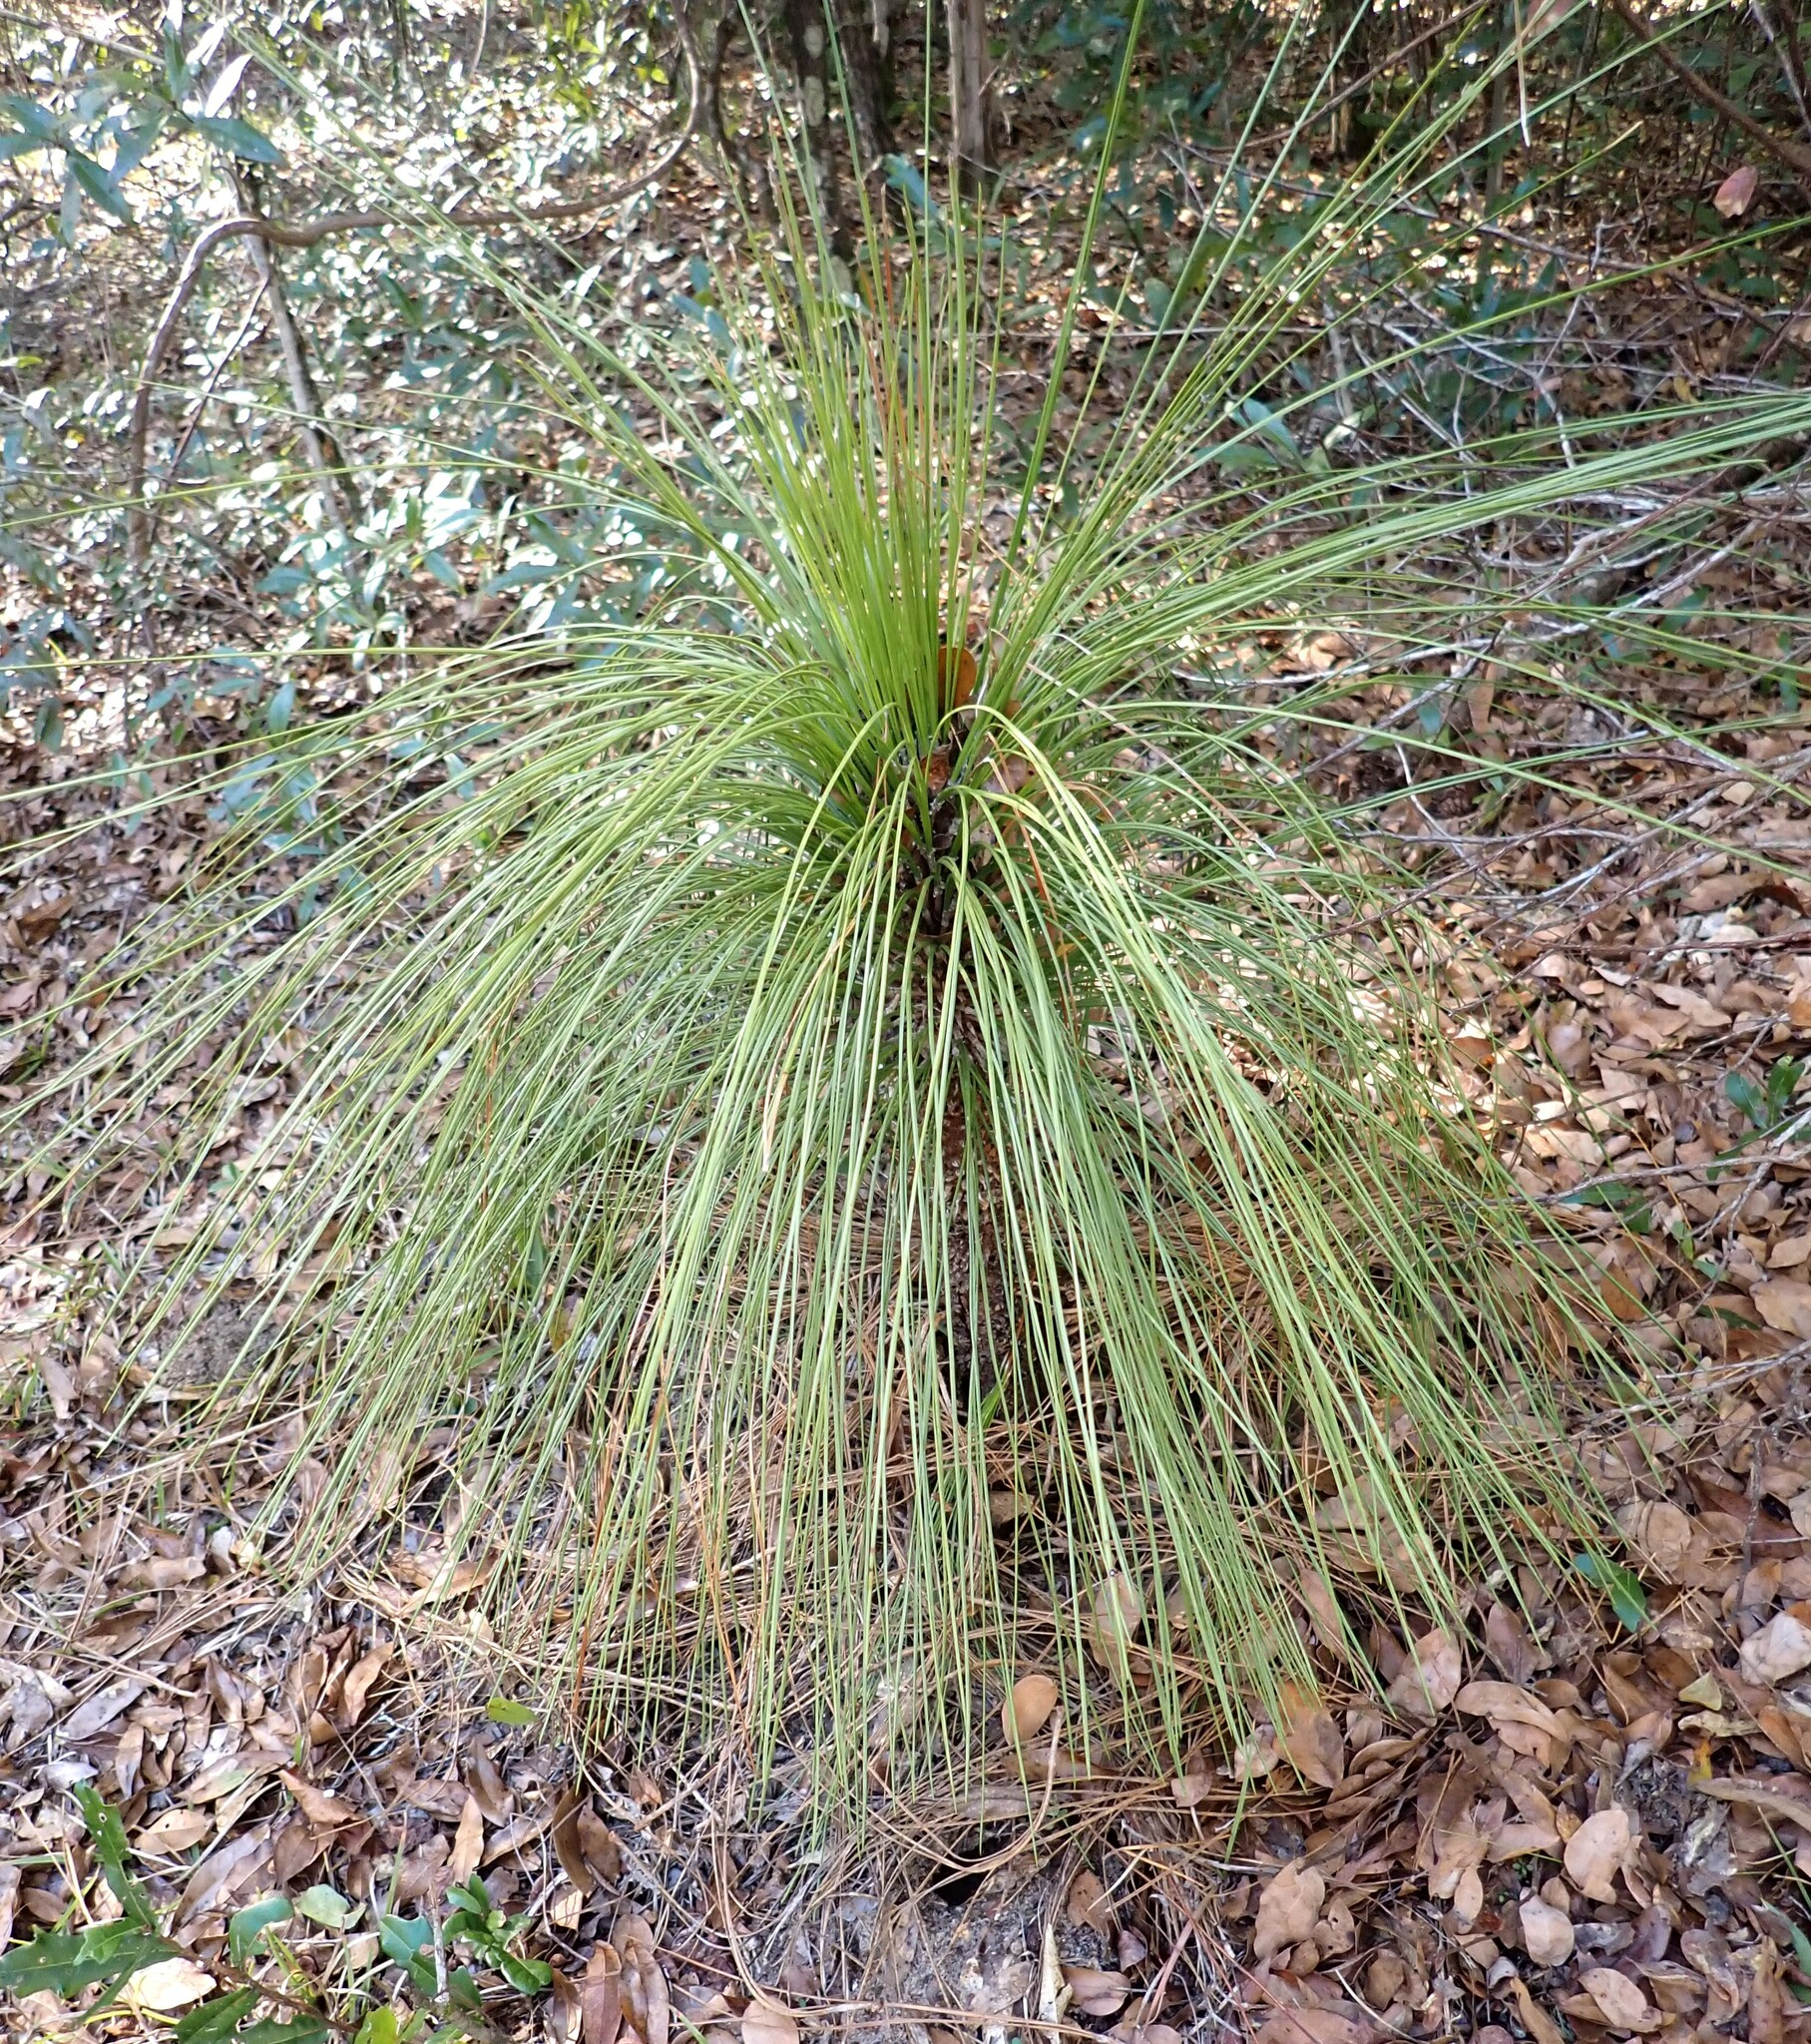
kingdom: Plantae
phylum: Tracheophyta
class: Pinopsida
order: Pinales
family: Pinaceae
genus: Pinus
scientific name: Pinus palustris
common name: Longleaf pine
